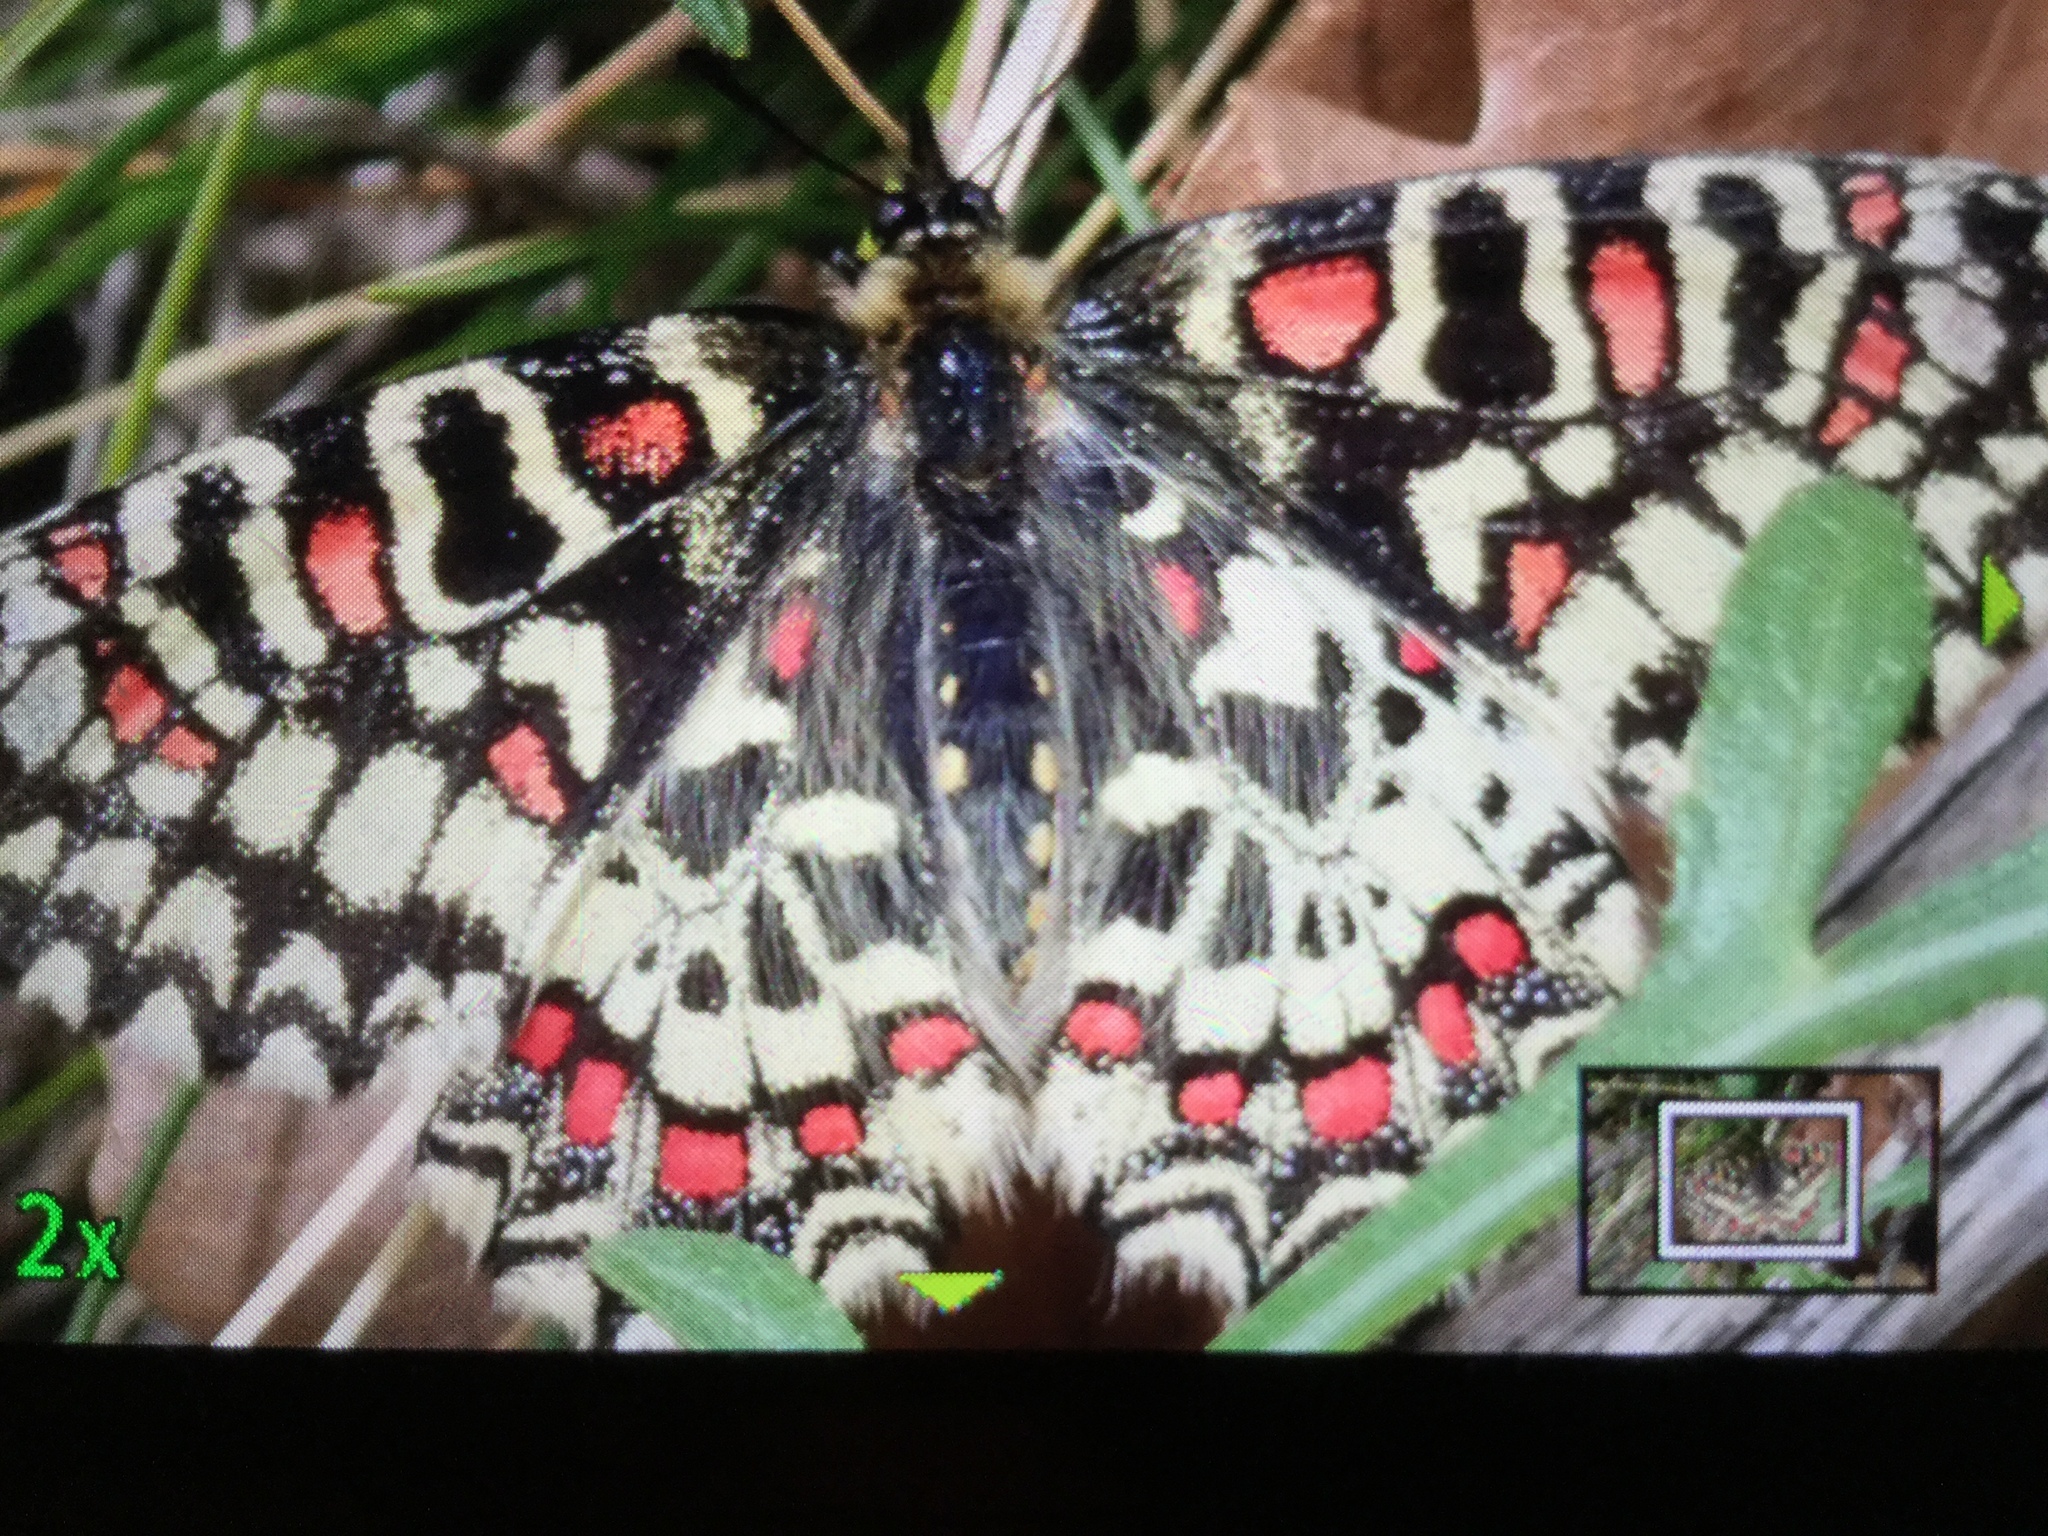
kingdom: Animalia
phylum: Arthropoda
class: Insecta
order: Lepidoptera
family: Papilionidae
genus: Zerynthia
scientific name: Zerynthia rumina
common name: Spanish festoon
